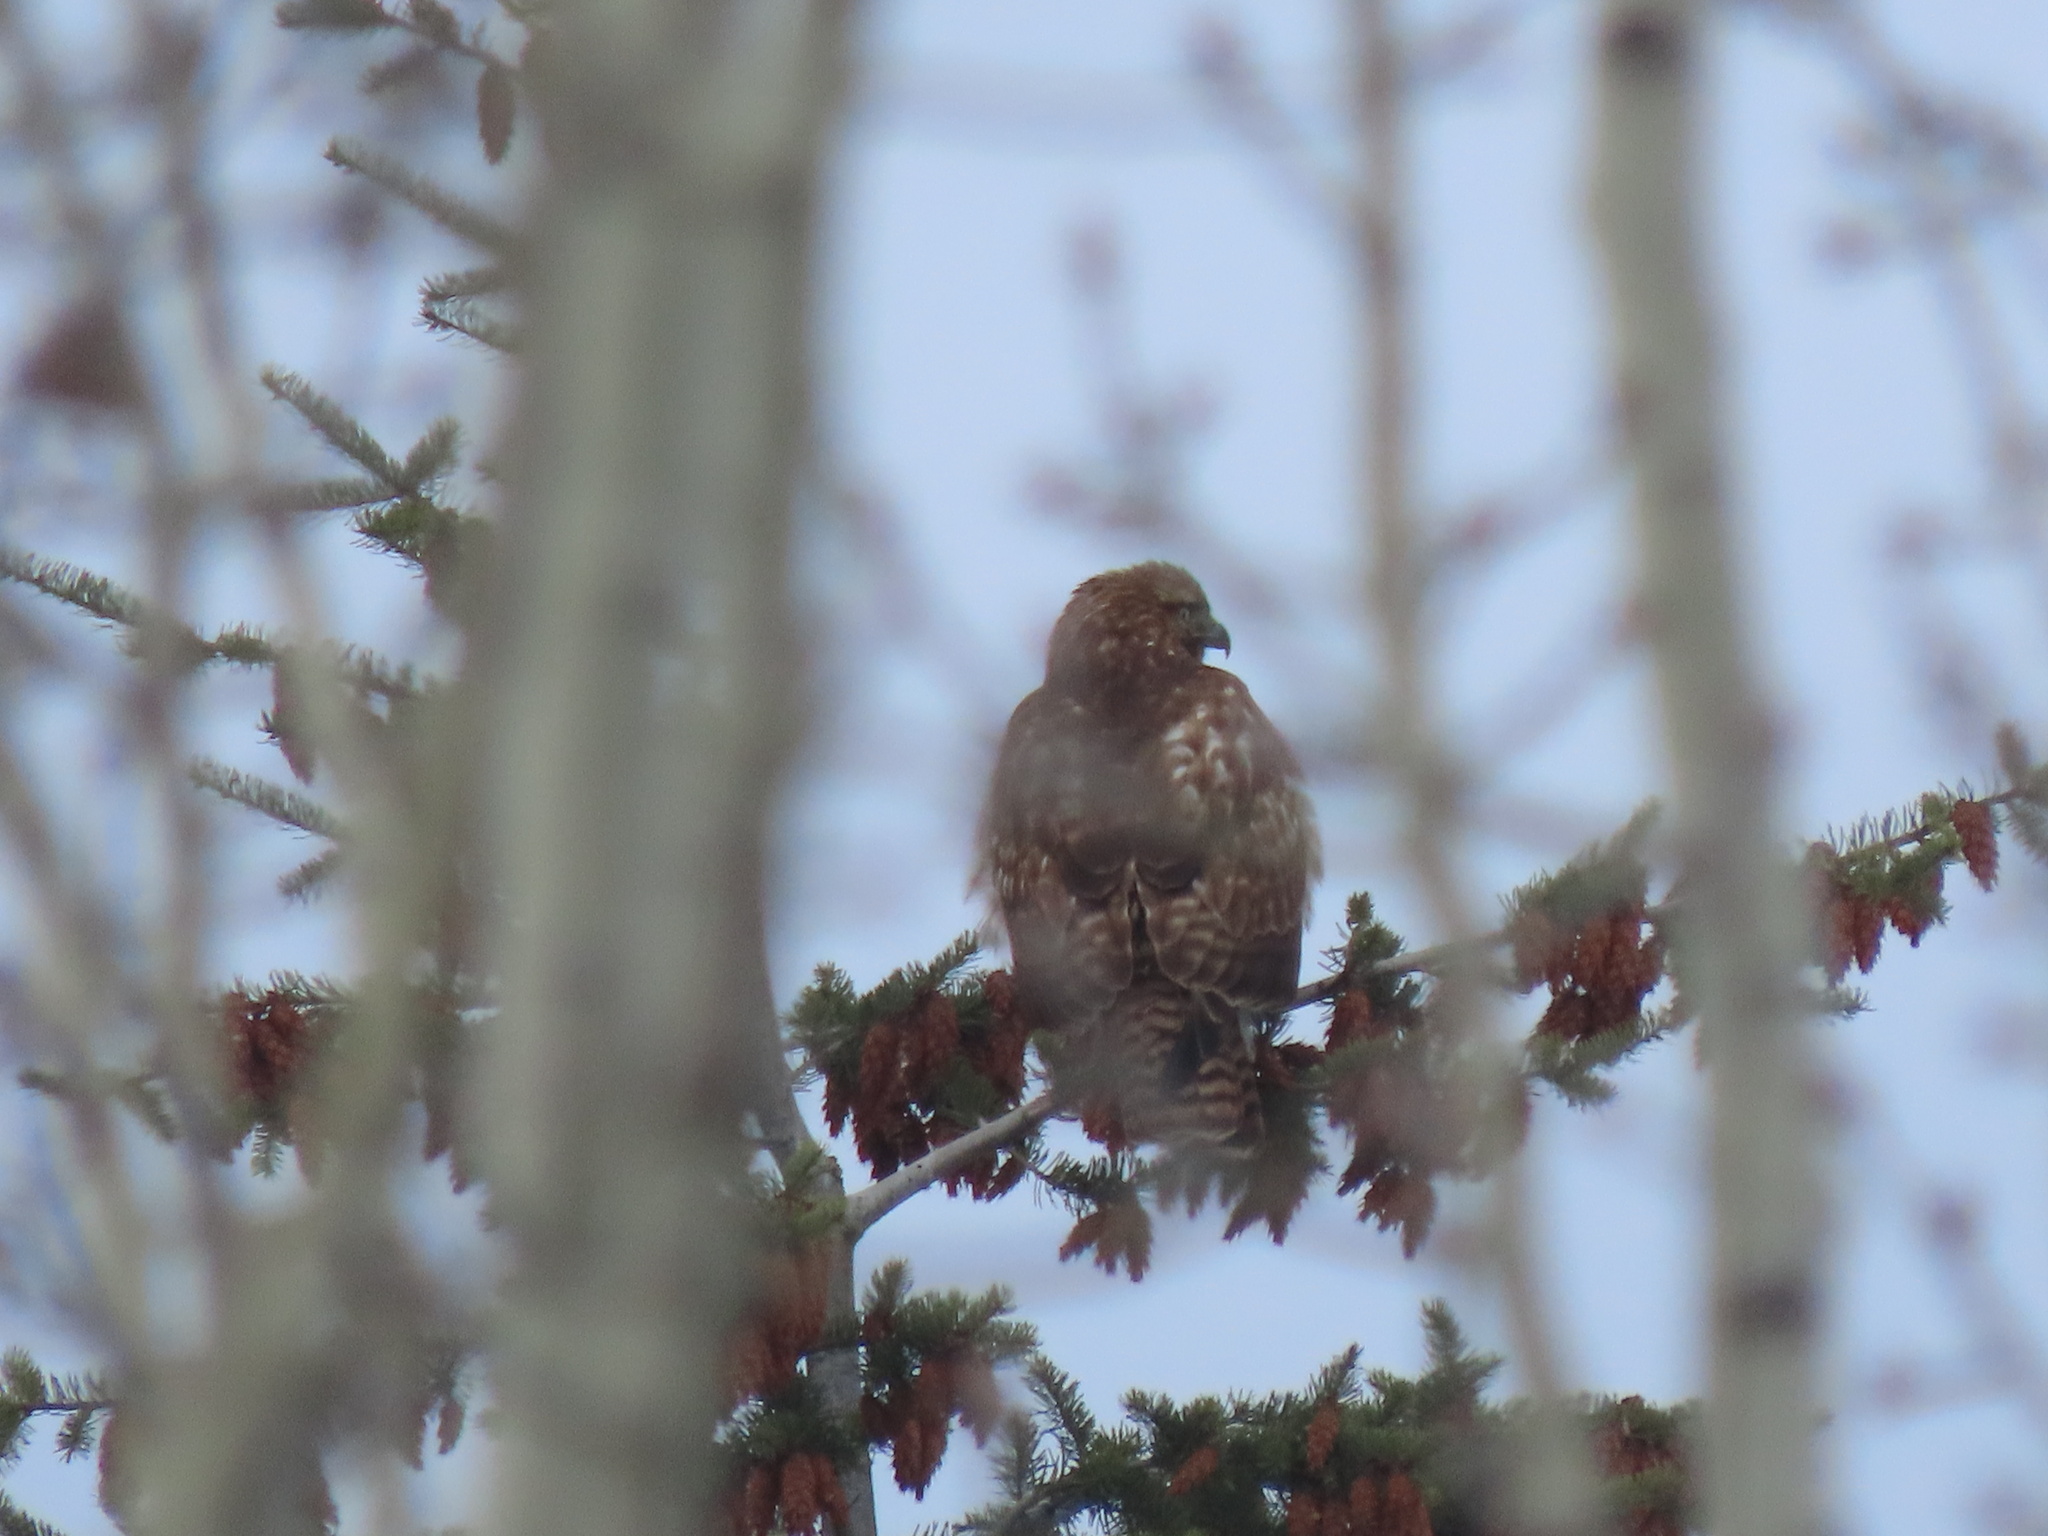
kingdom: Animalia
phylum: Chordata
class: Aves
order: Accipitriformes
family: Accipitridae
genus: Buteo
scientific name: Buteo jamaicensis
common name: Red-tailed hawk
